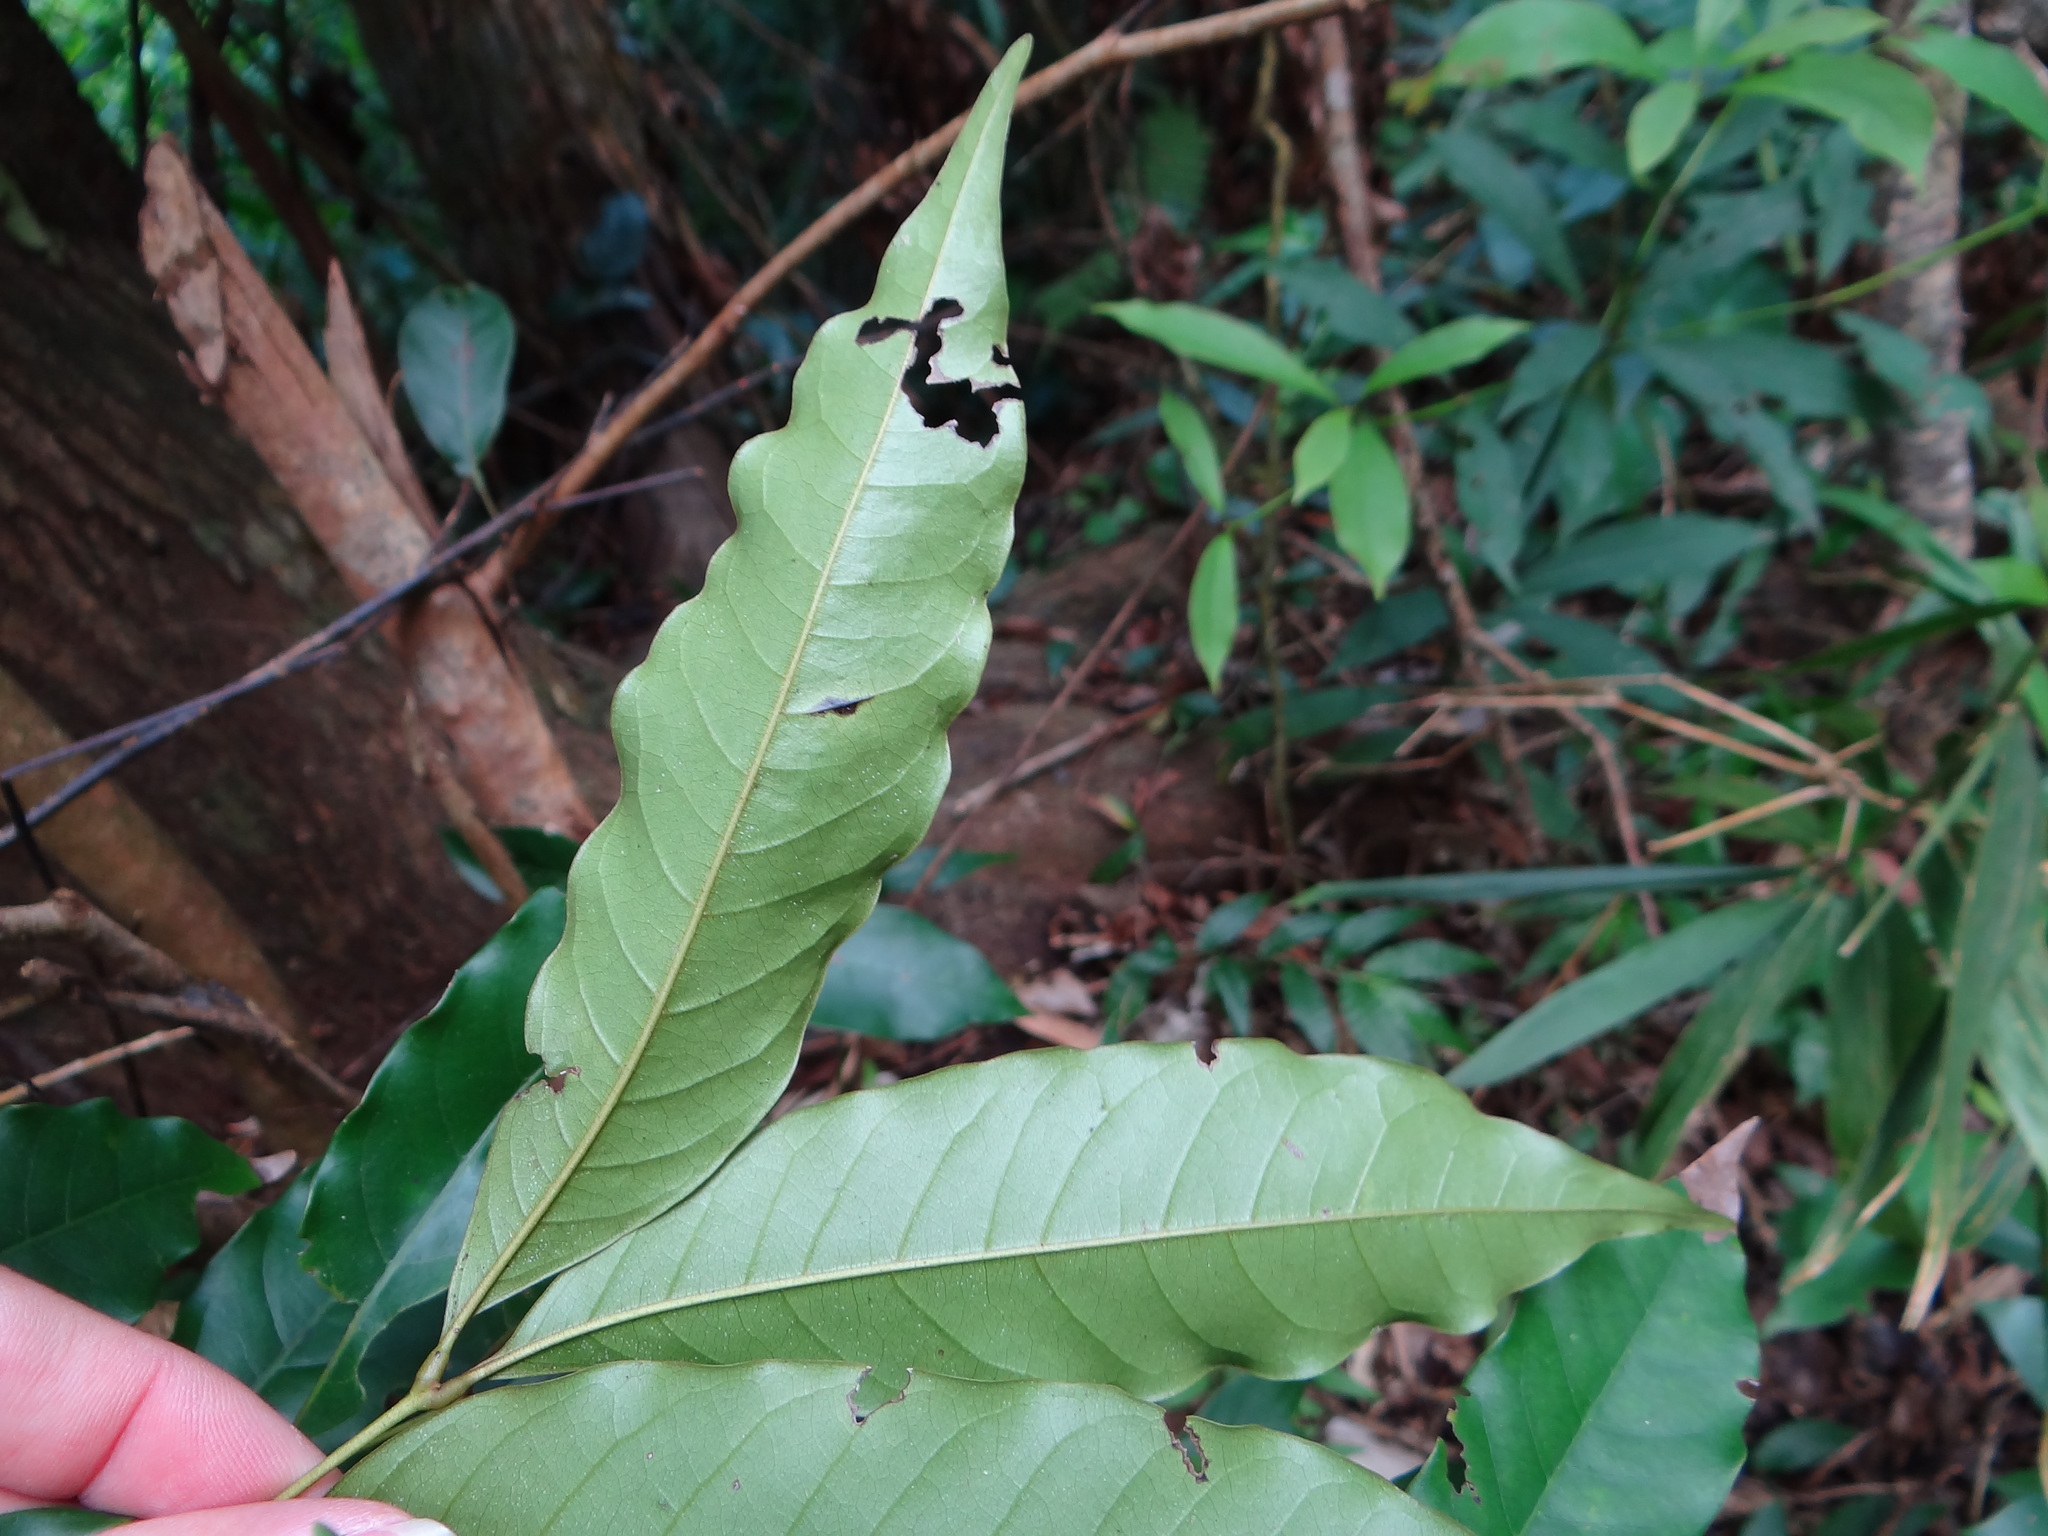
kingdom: Plantae
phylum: Tracheophyta
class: Magnoliopsida
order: Fagales
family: Juglandaceae
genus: Engelhardia
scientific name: Engelhardia roxburghiana
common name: Golden malay beam
